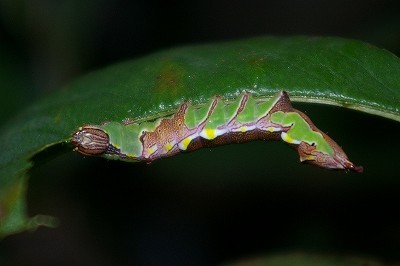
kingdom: Animalia
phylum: Arthropoda
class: Insecta
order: Lepidoptera
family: Notodontidae
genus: Wilemanus
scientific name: Wilemanus bidentatus
